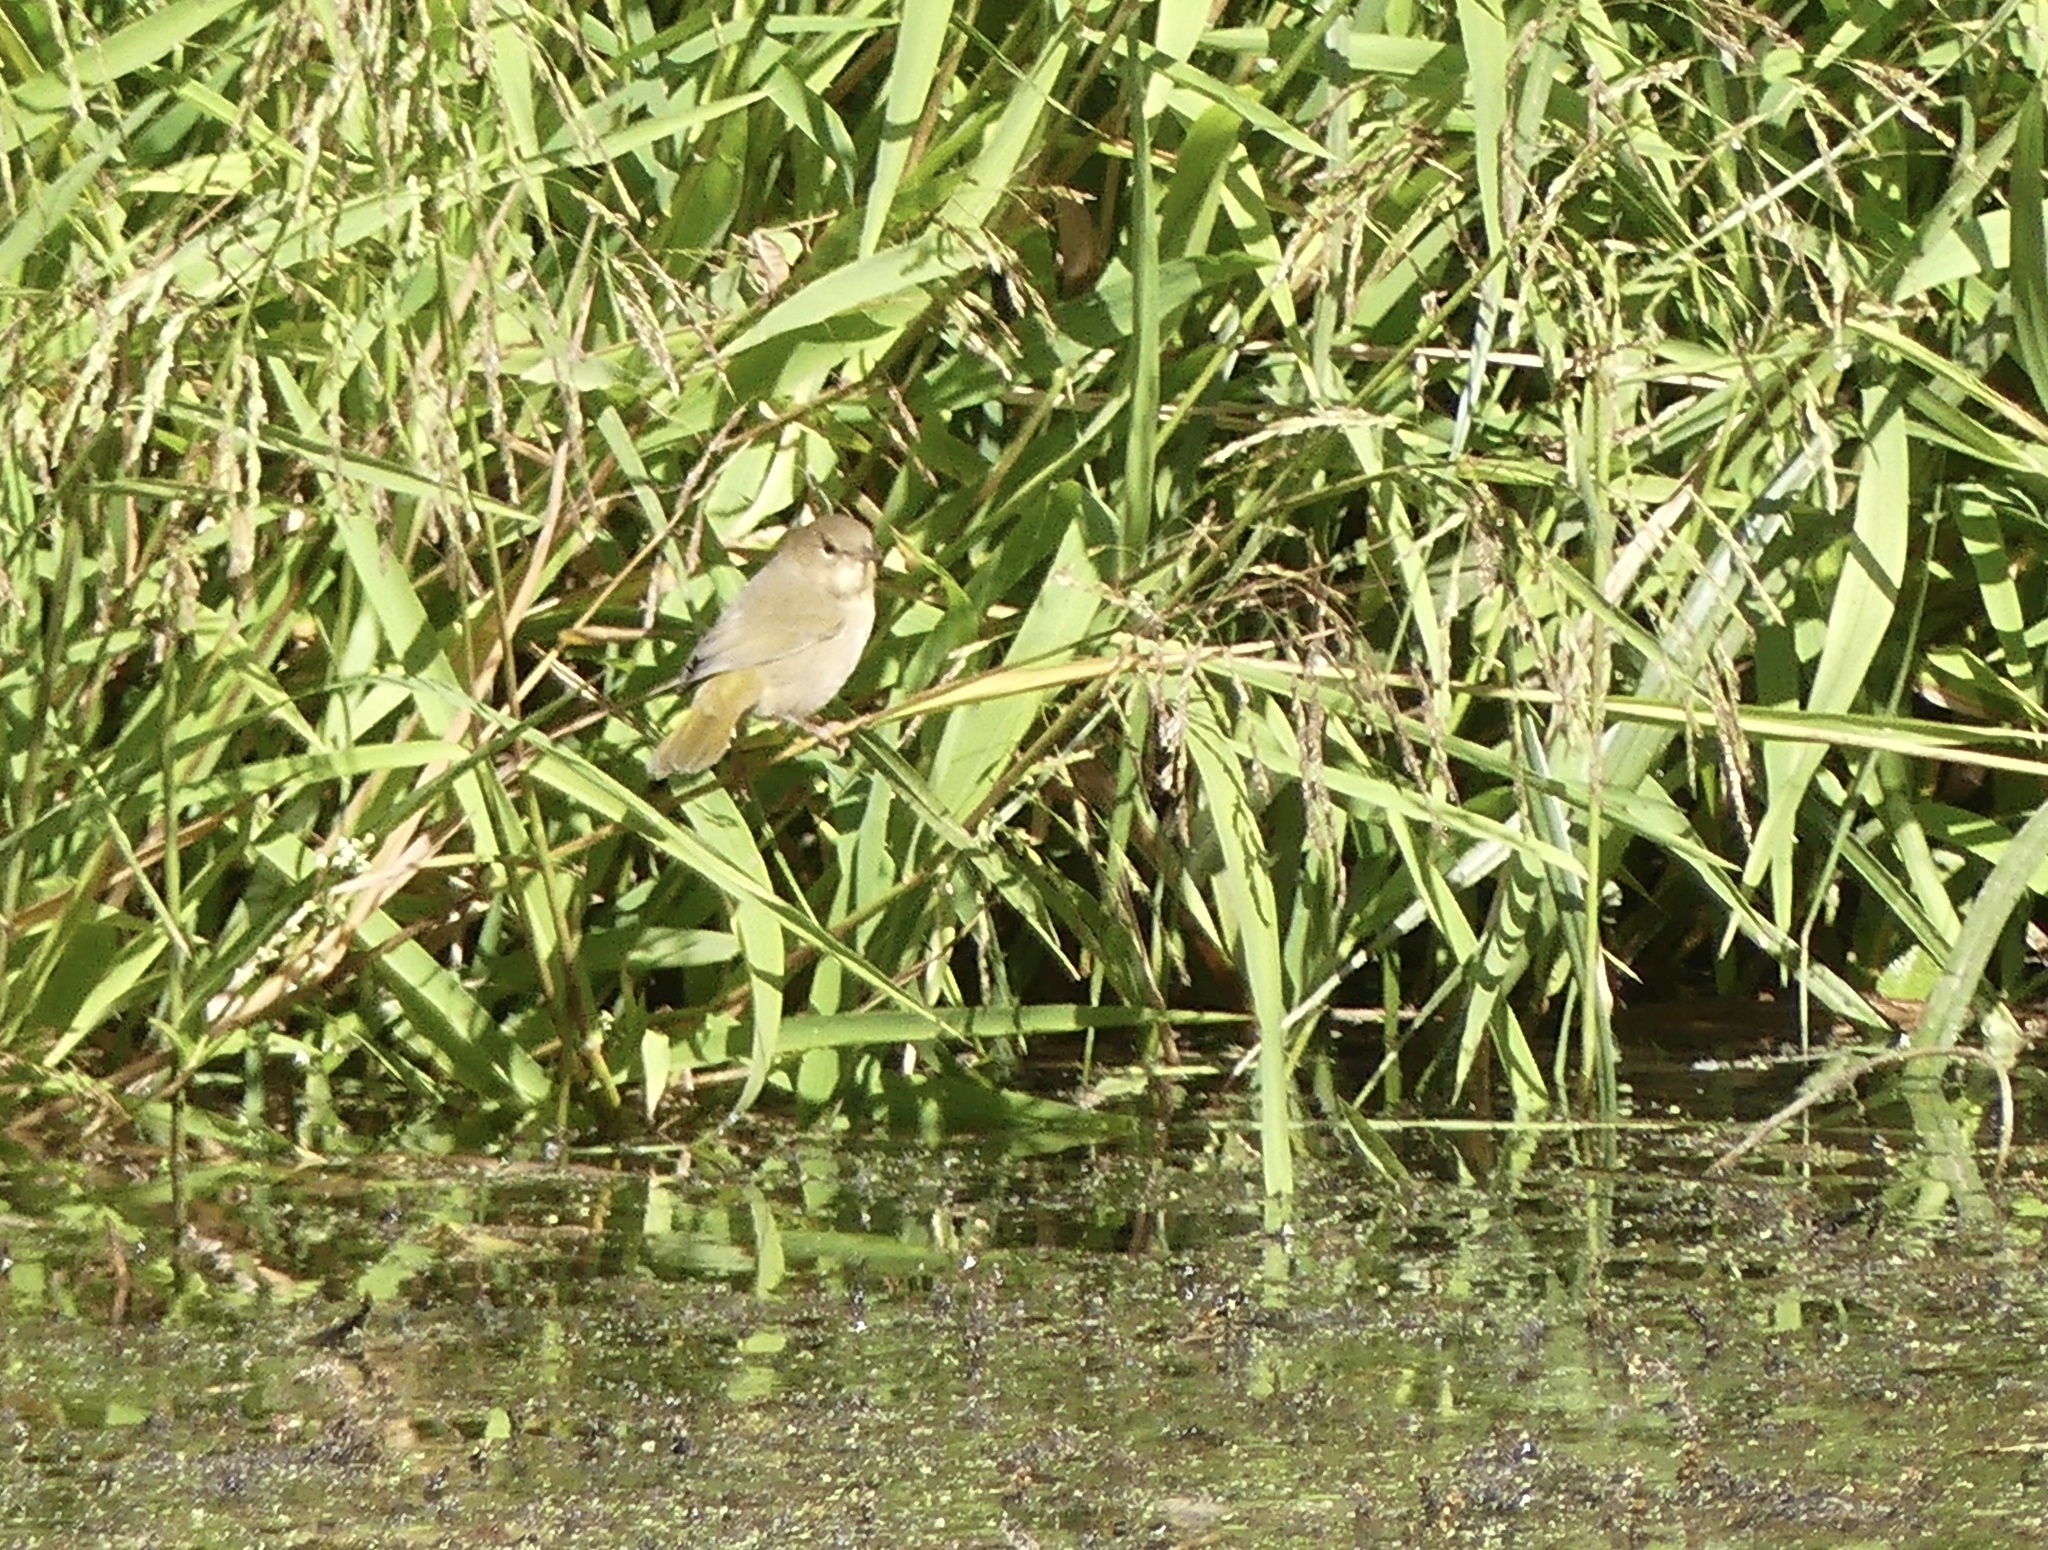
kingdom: Animalia
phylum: Chordata
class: Aves
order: Passeriformes
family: Parulidae
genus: Geothlypis
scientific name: Geothlypis trichas
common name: Common yellowthroat
